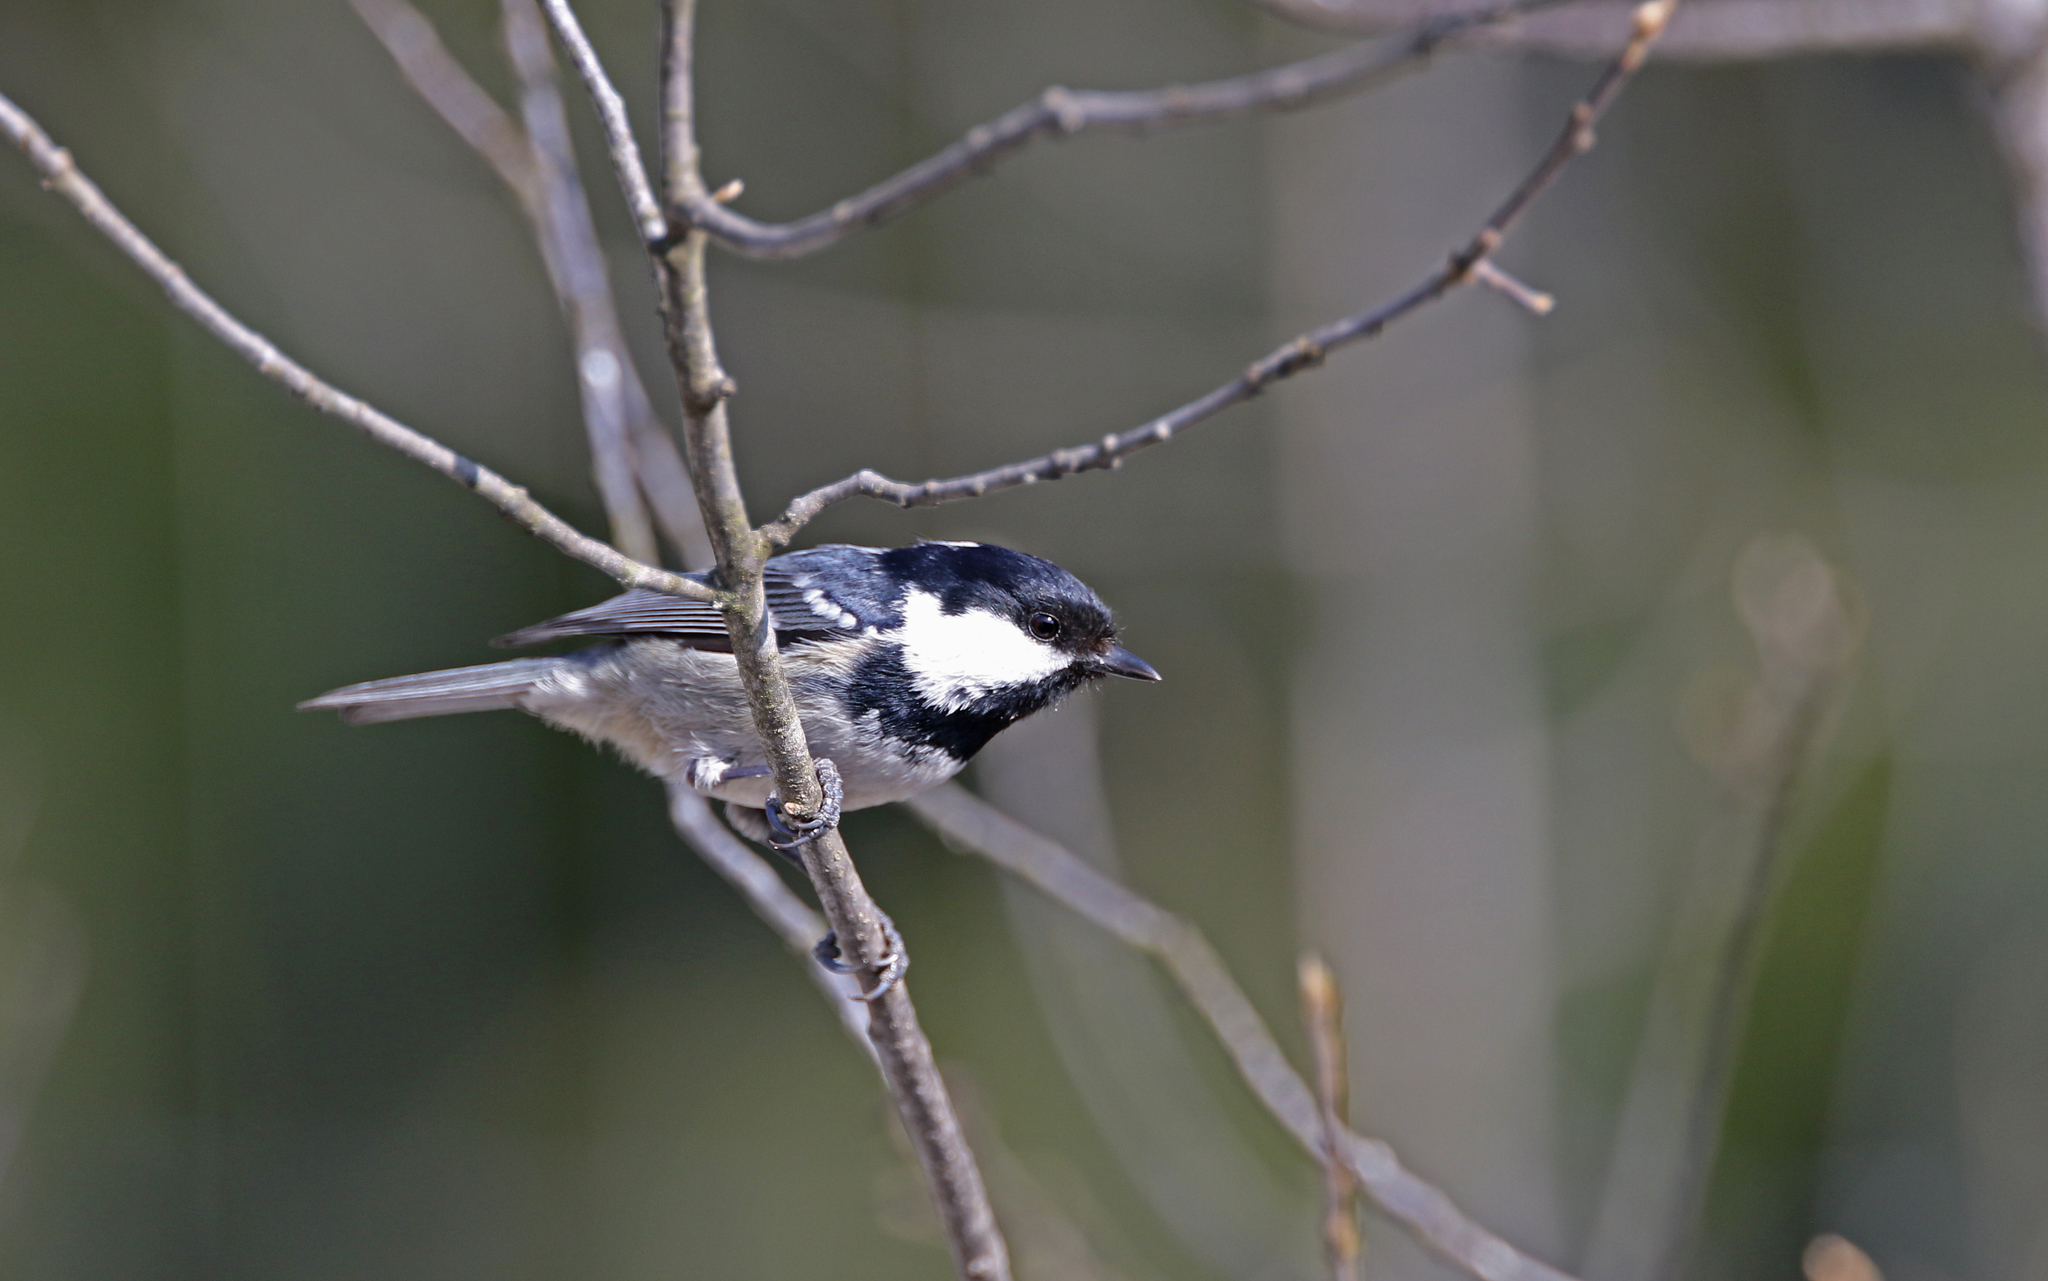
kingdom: Animalia
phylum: Chordata
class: Aves
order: Passeriformes
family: Paridae
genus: Periparus
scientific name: Periparus ater
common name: Coal tit
